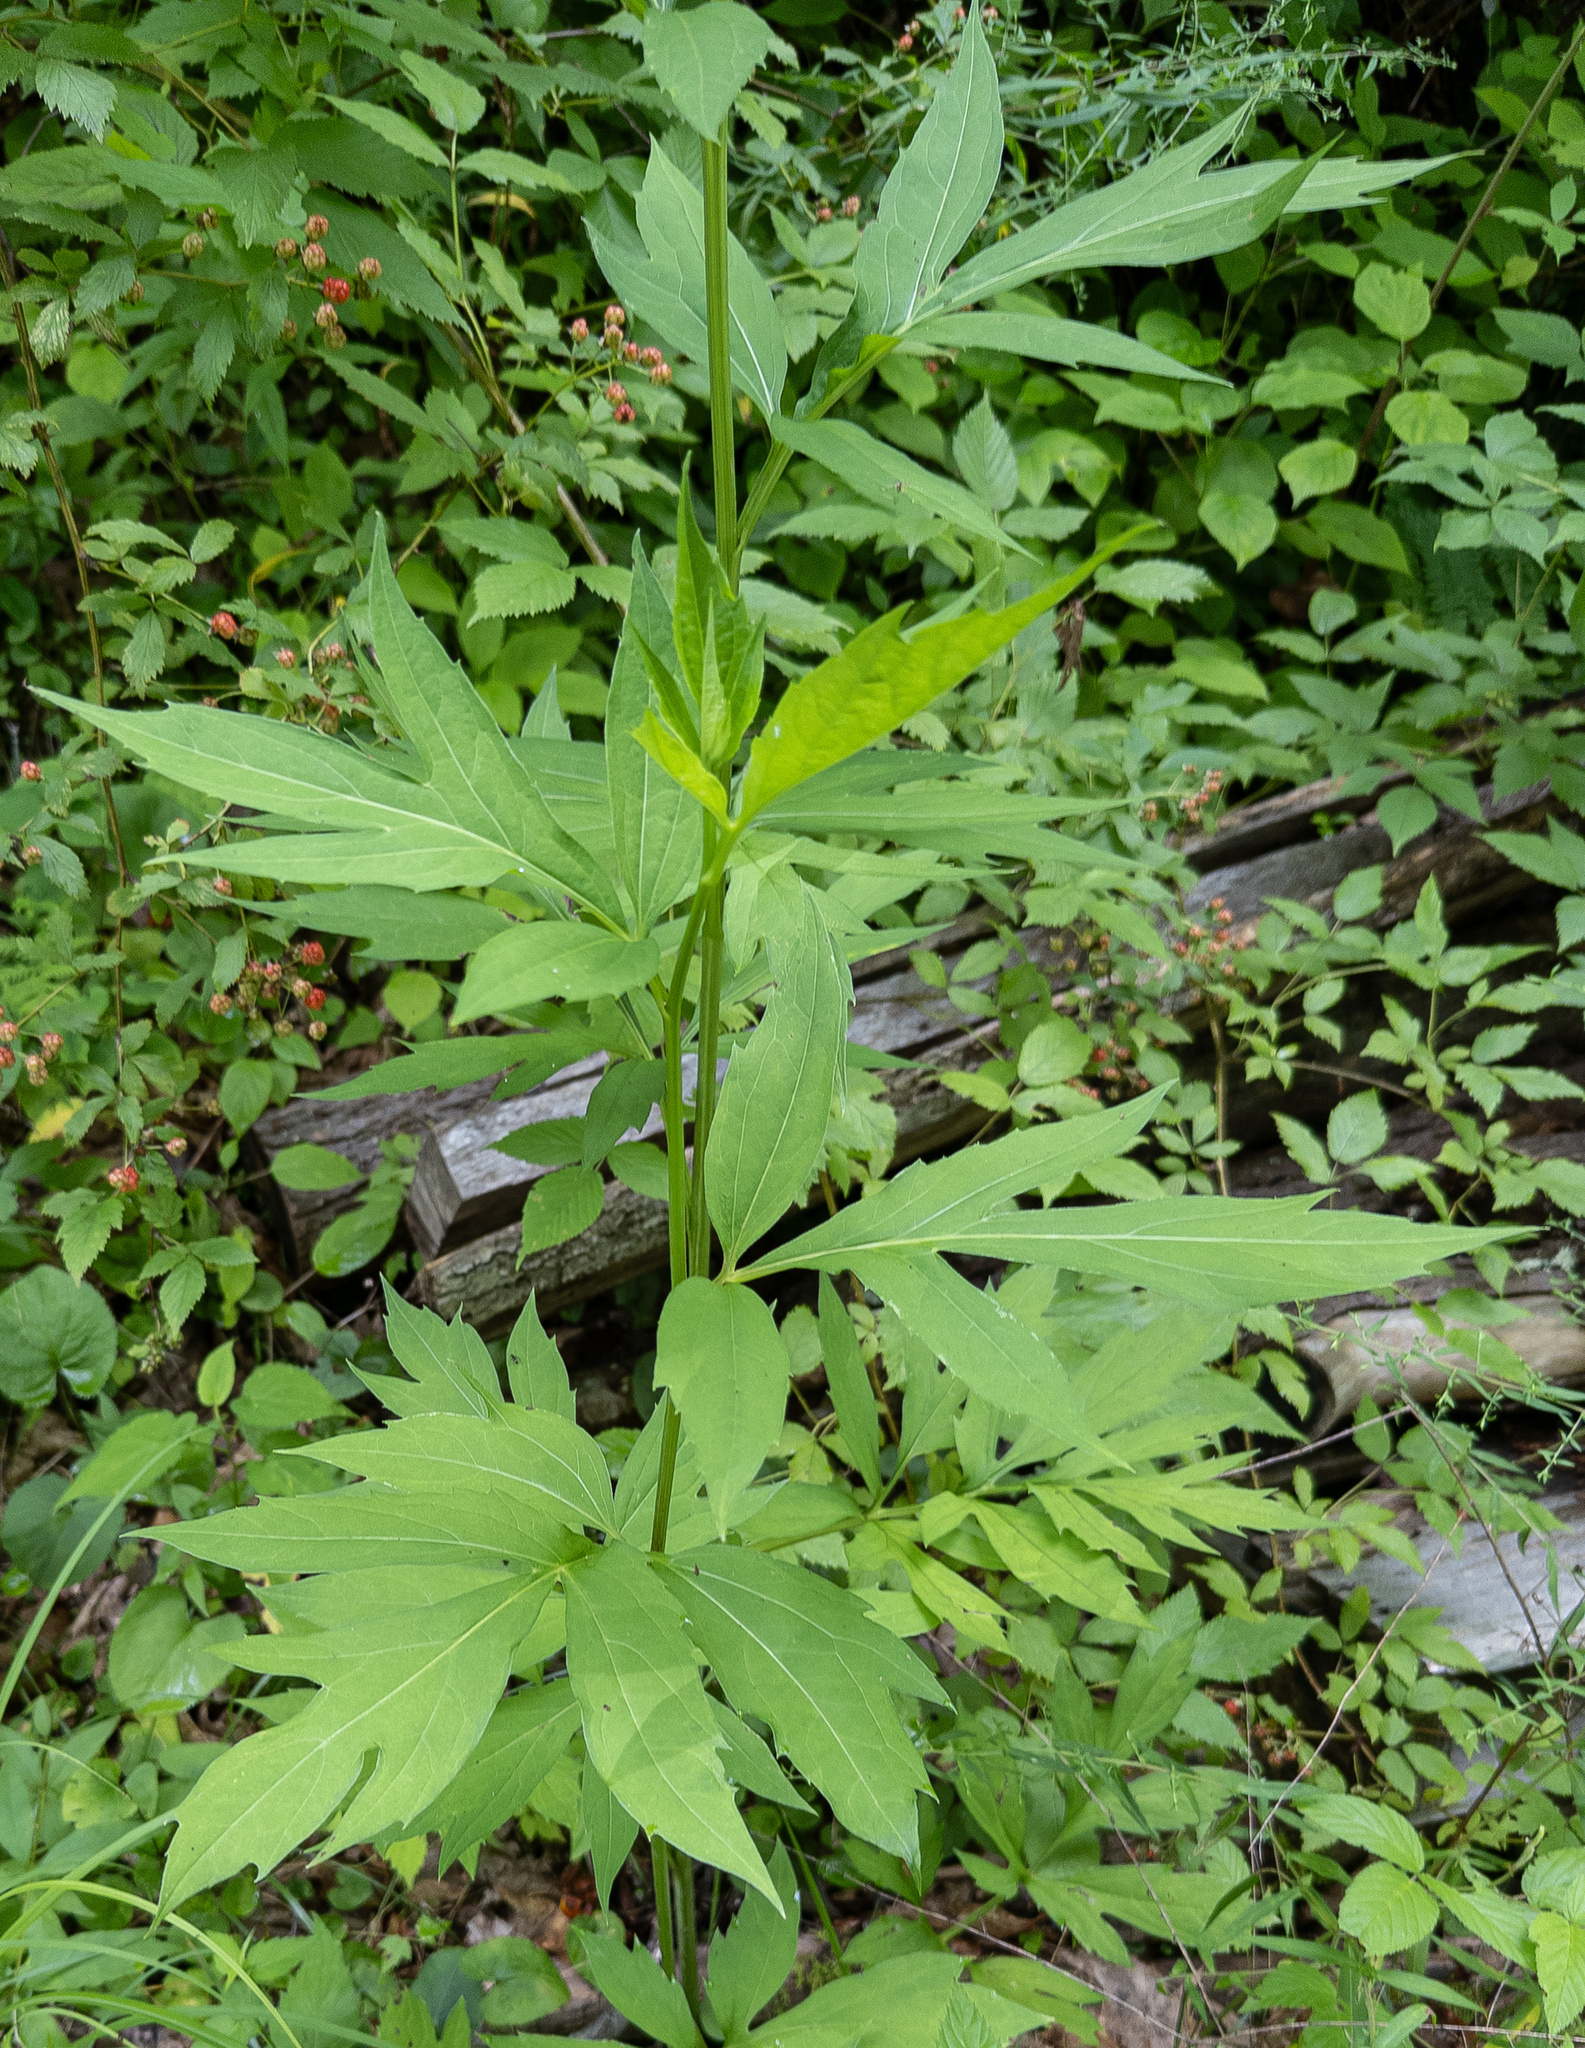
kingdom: Plantae
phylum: Tracheophyta
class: Magnoliopsida
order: Asterales
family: Asteraceae
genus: Rudbeckia
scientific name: Rudbeckia laciniata
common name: Coneflower
